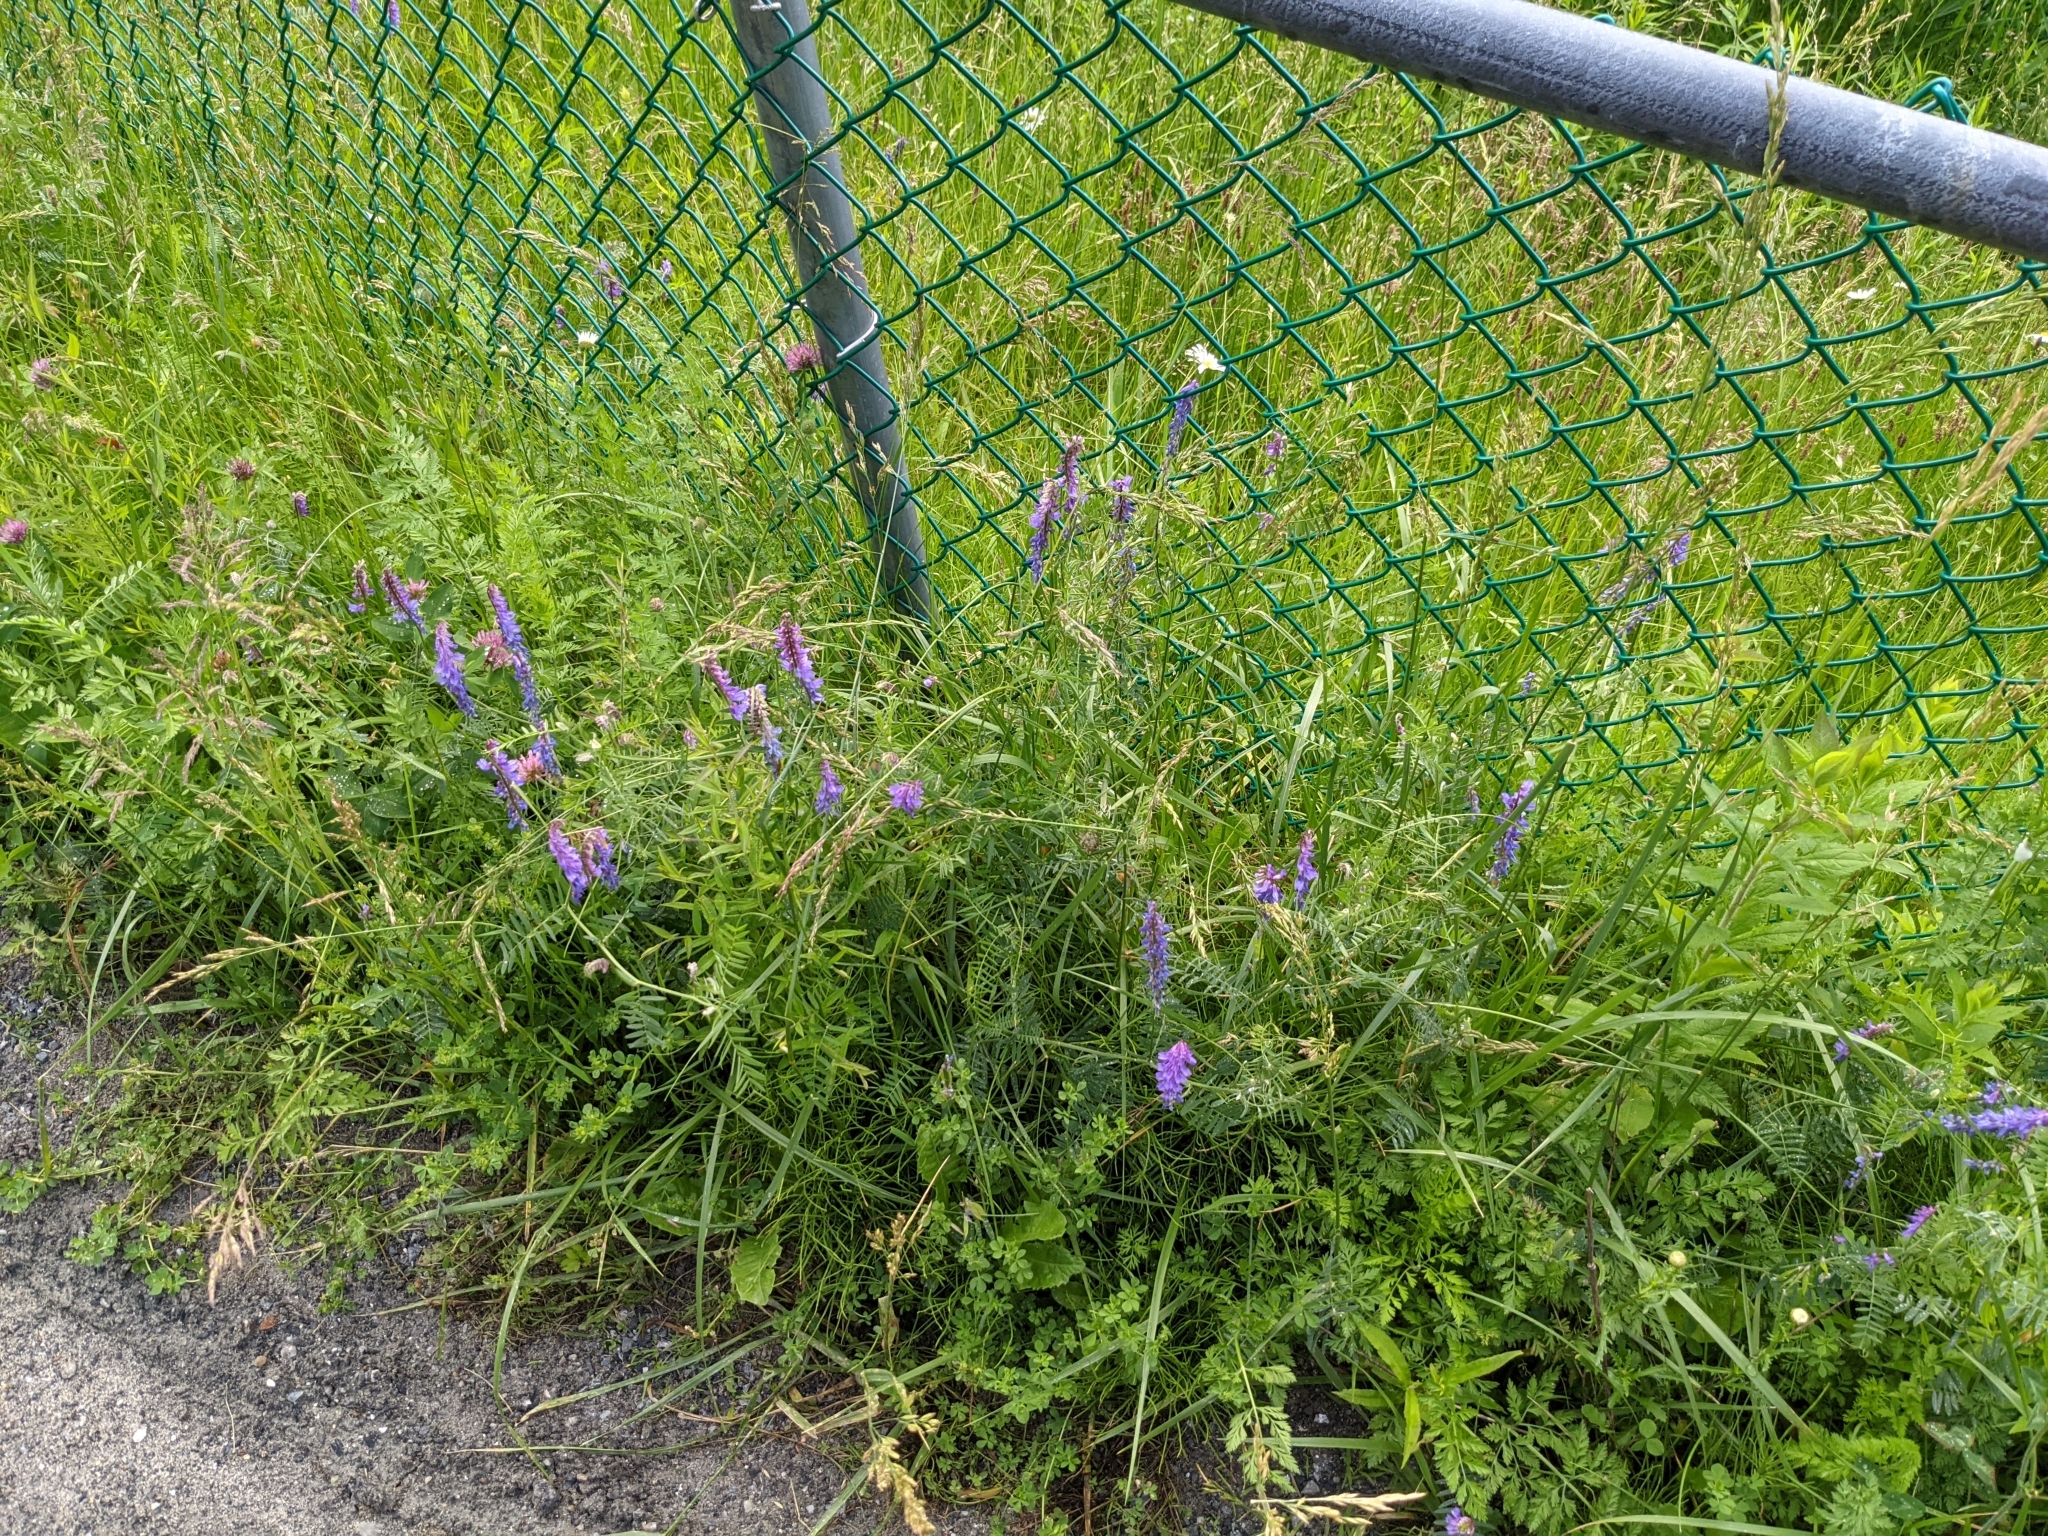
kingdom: Plantae
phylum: Tracheophyta
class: Magnoliopsida
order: Fabales
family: Fabaceae
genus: Vicia
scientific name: Vicia cracca
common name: Bird vetch
